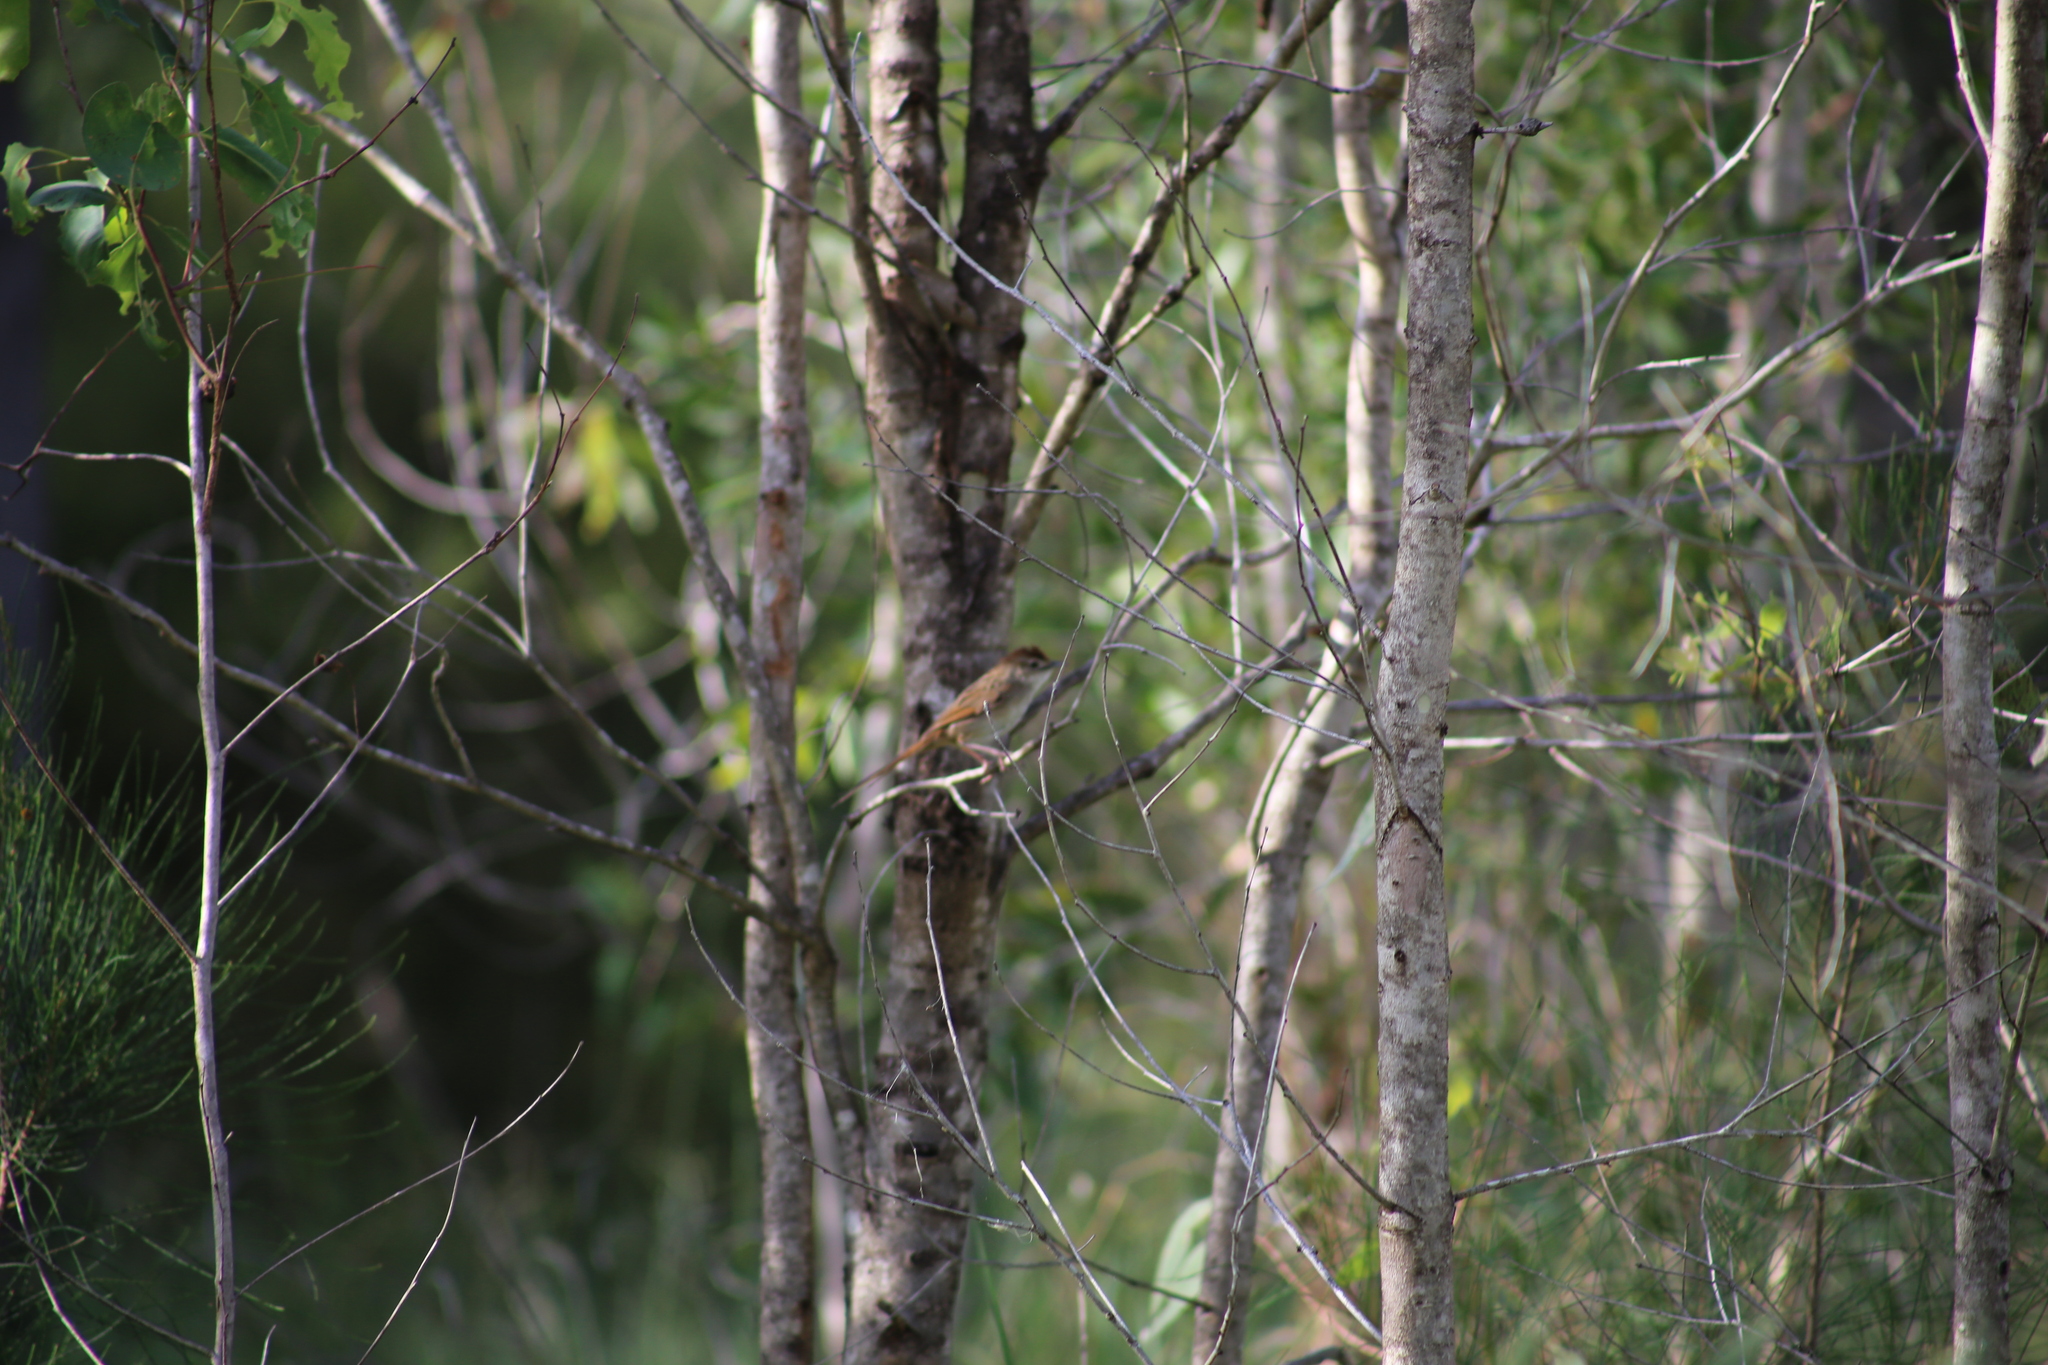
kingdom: Animalia
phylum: Chordata
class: Aves
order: Passeriformes
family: Locustellidae
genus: Megalurus
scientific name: Megalurus timoriensis
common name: Tawny grassbird
